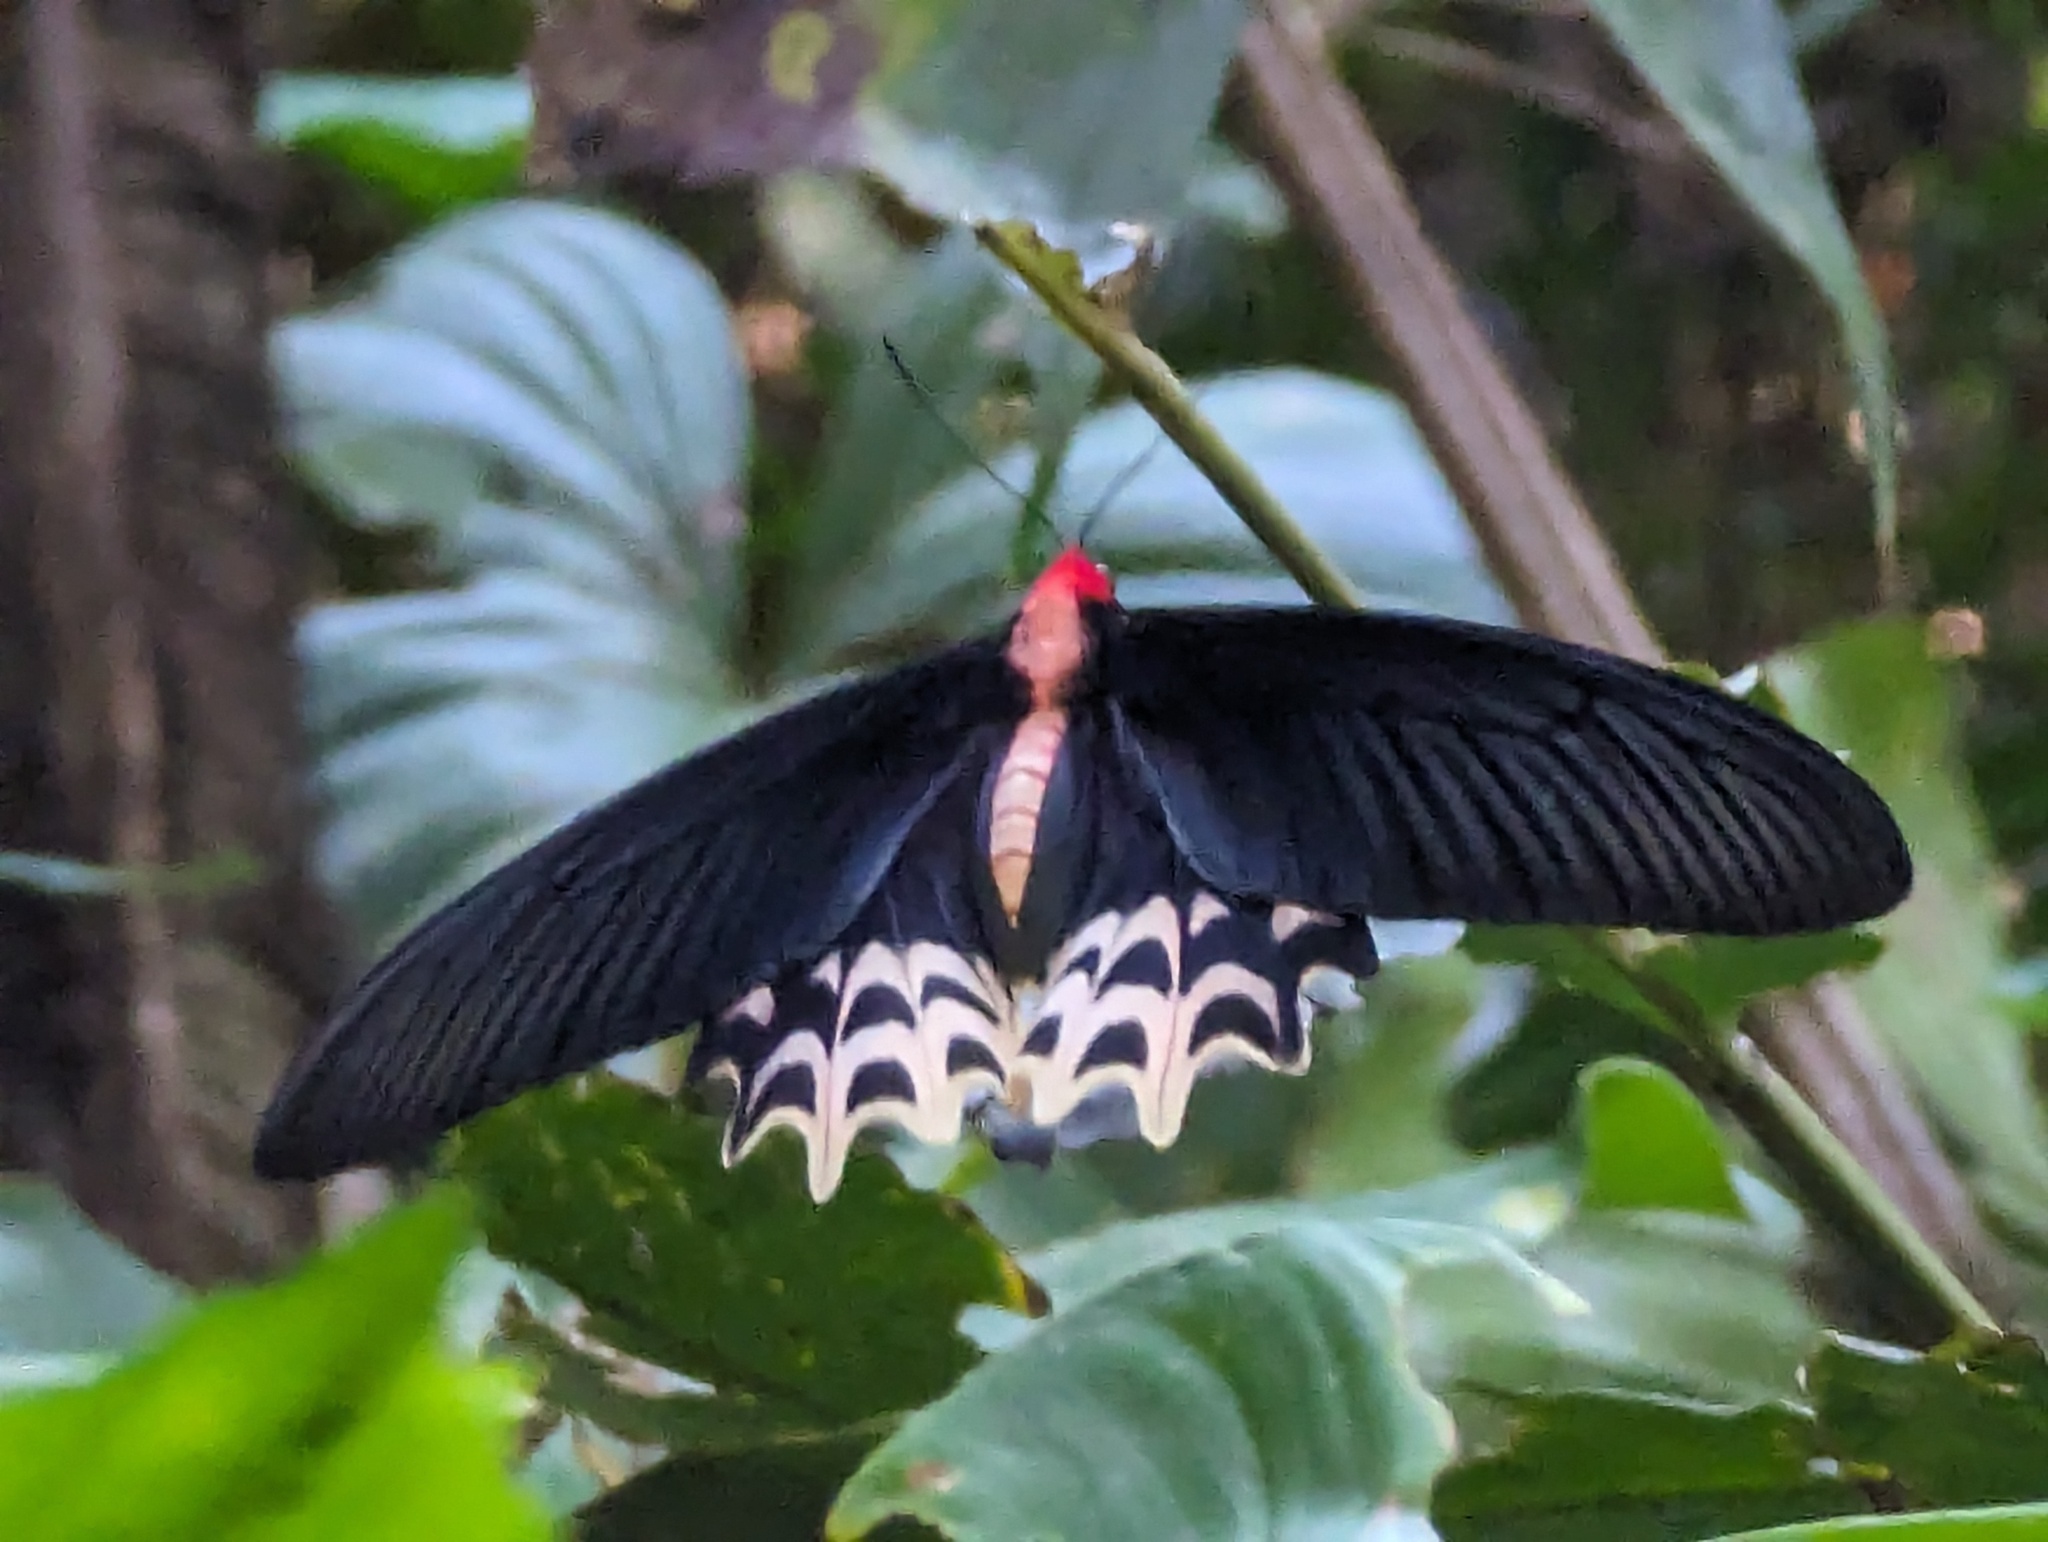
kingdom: Animalia
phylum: Arthropoda
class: Insecta
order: Lepidoptera
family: Papilionidae
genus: Atrophaneura
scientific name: Atrophaneura semperi
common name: Red-bodied batwing swallowtail
